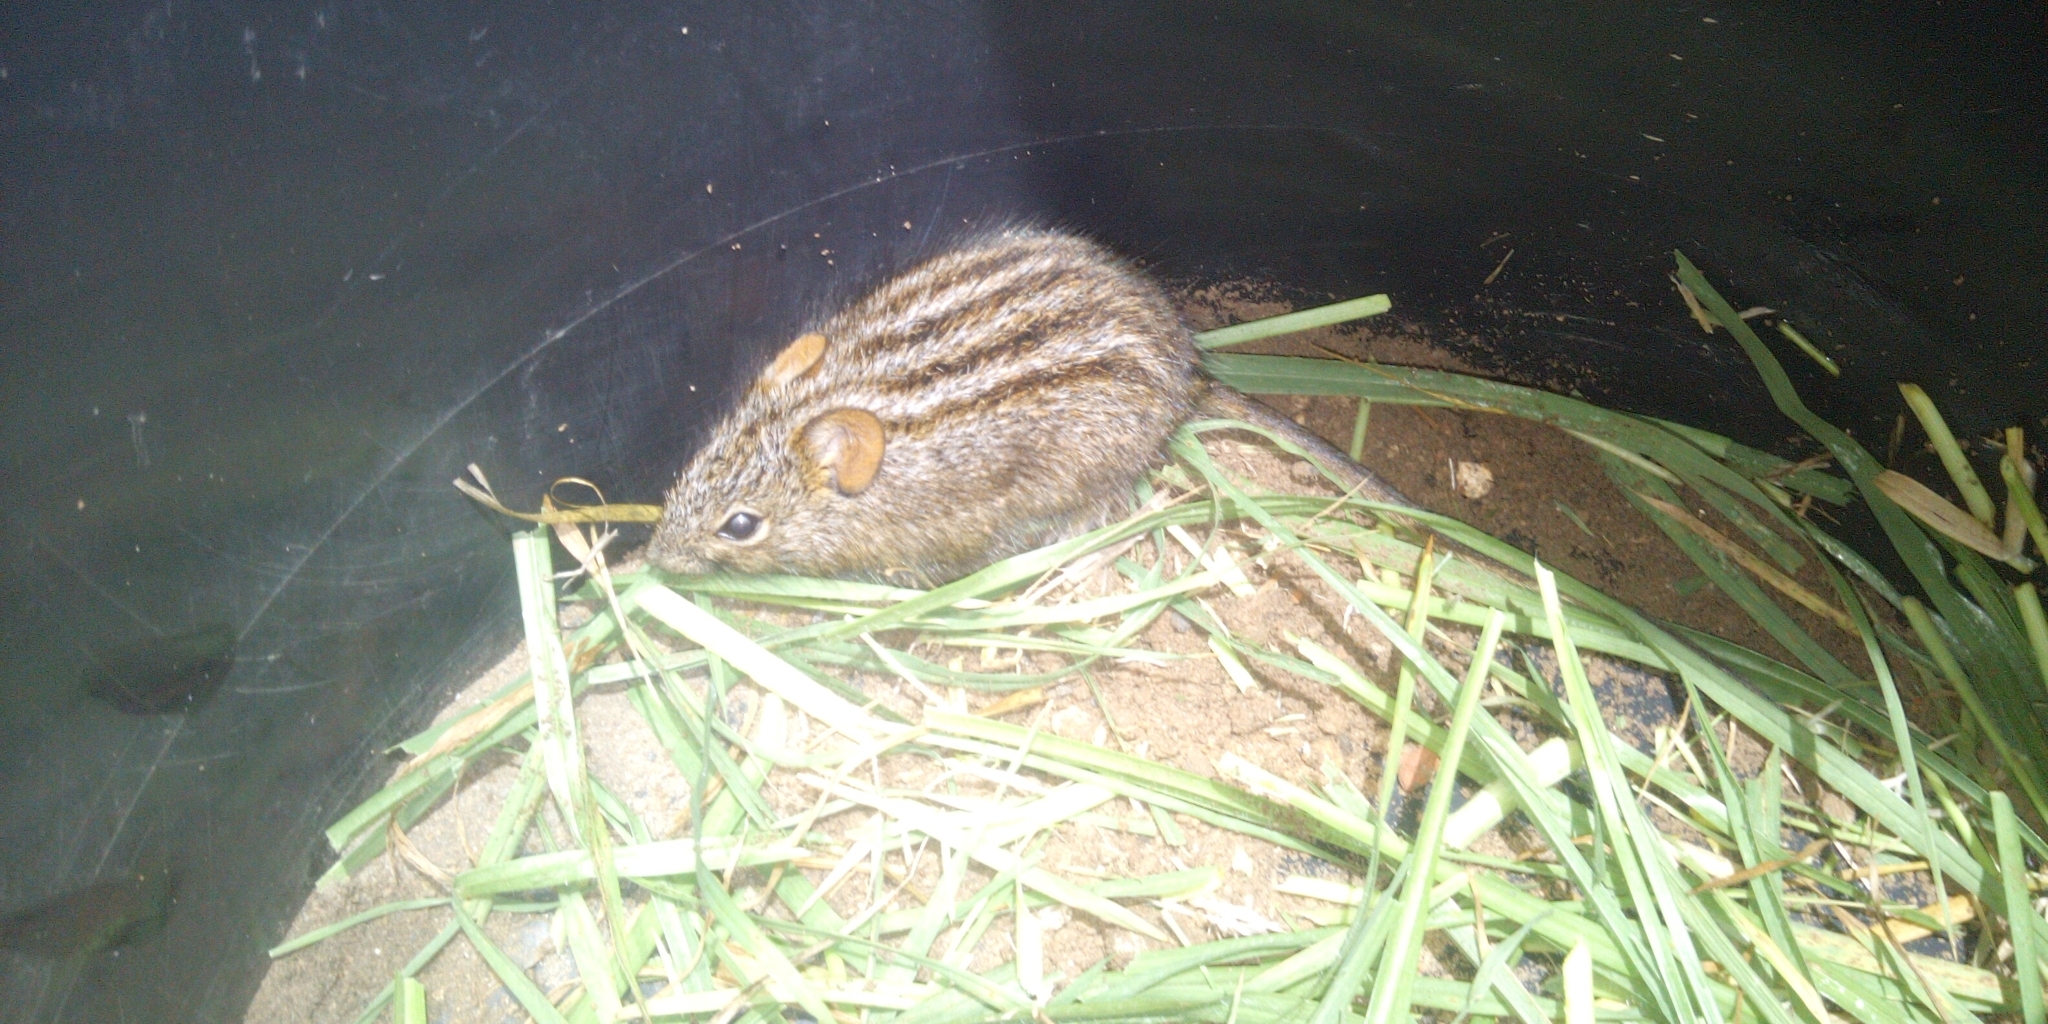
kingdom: Animalia
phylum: Chordata
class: Mammalia
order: Rodentia
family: Muridae
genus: Rhabdomys
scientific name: Rhabdomys pumilio
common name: Xeric four-striped grass rat
